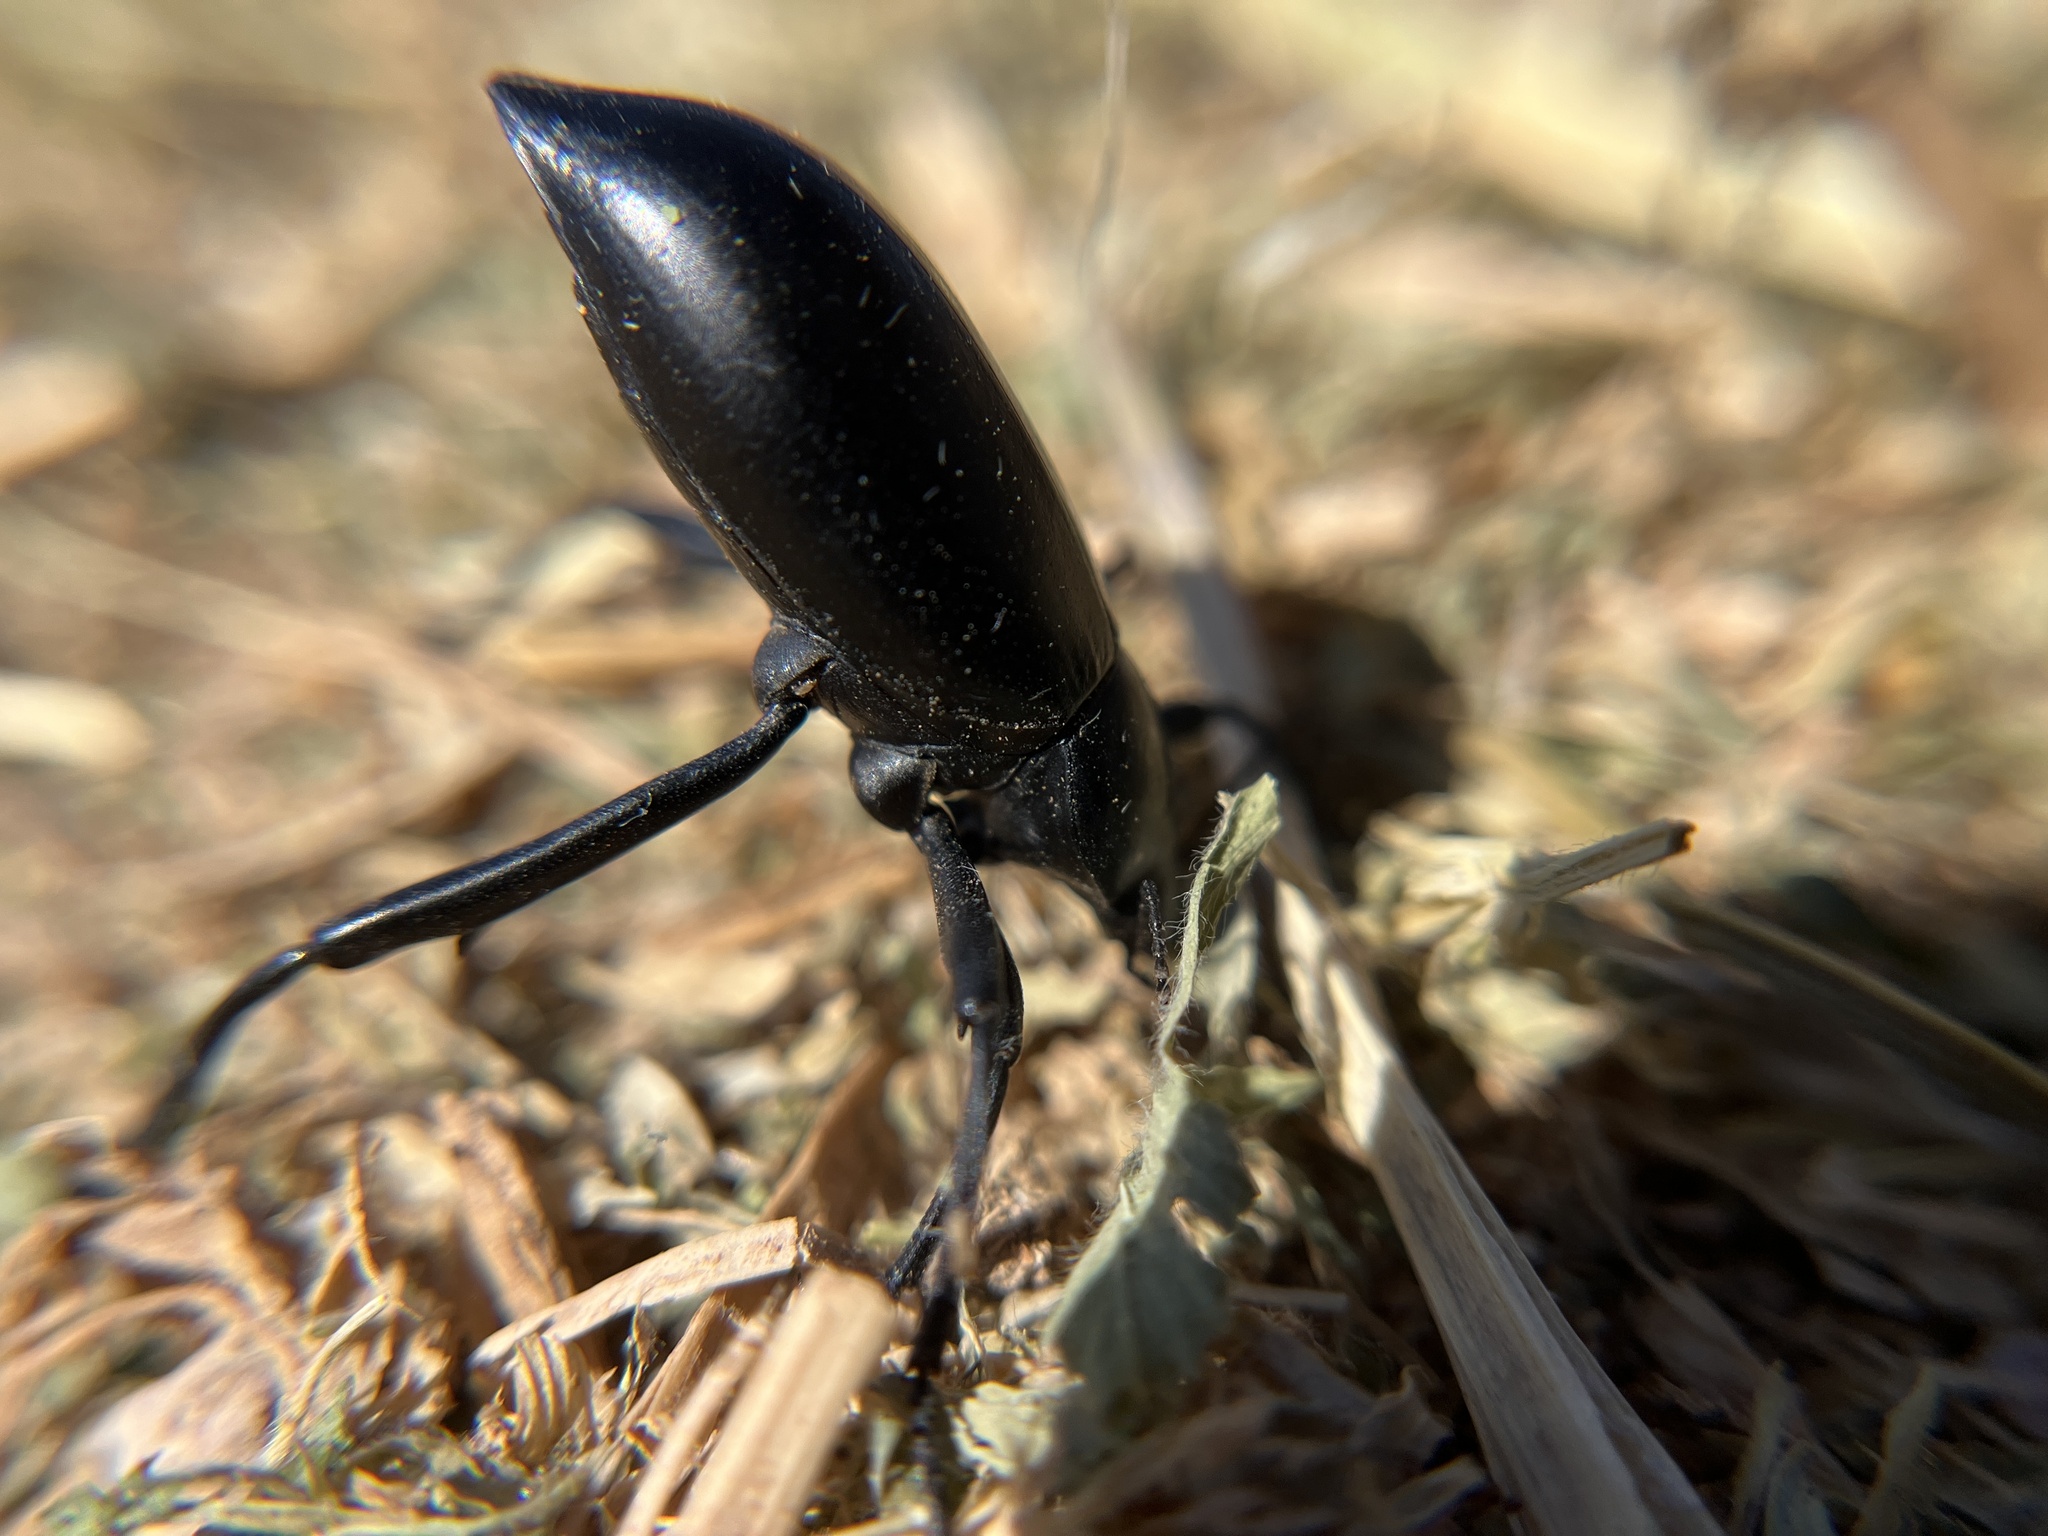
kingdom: Animalia
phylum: Arthropoda
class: Insecta
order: Coleoptera
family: Tenebrionidae
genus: Eleodes
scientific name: Eleodes armata
